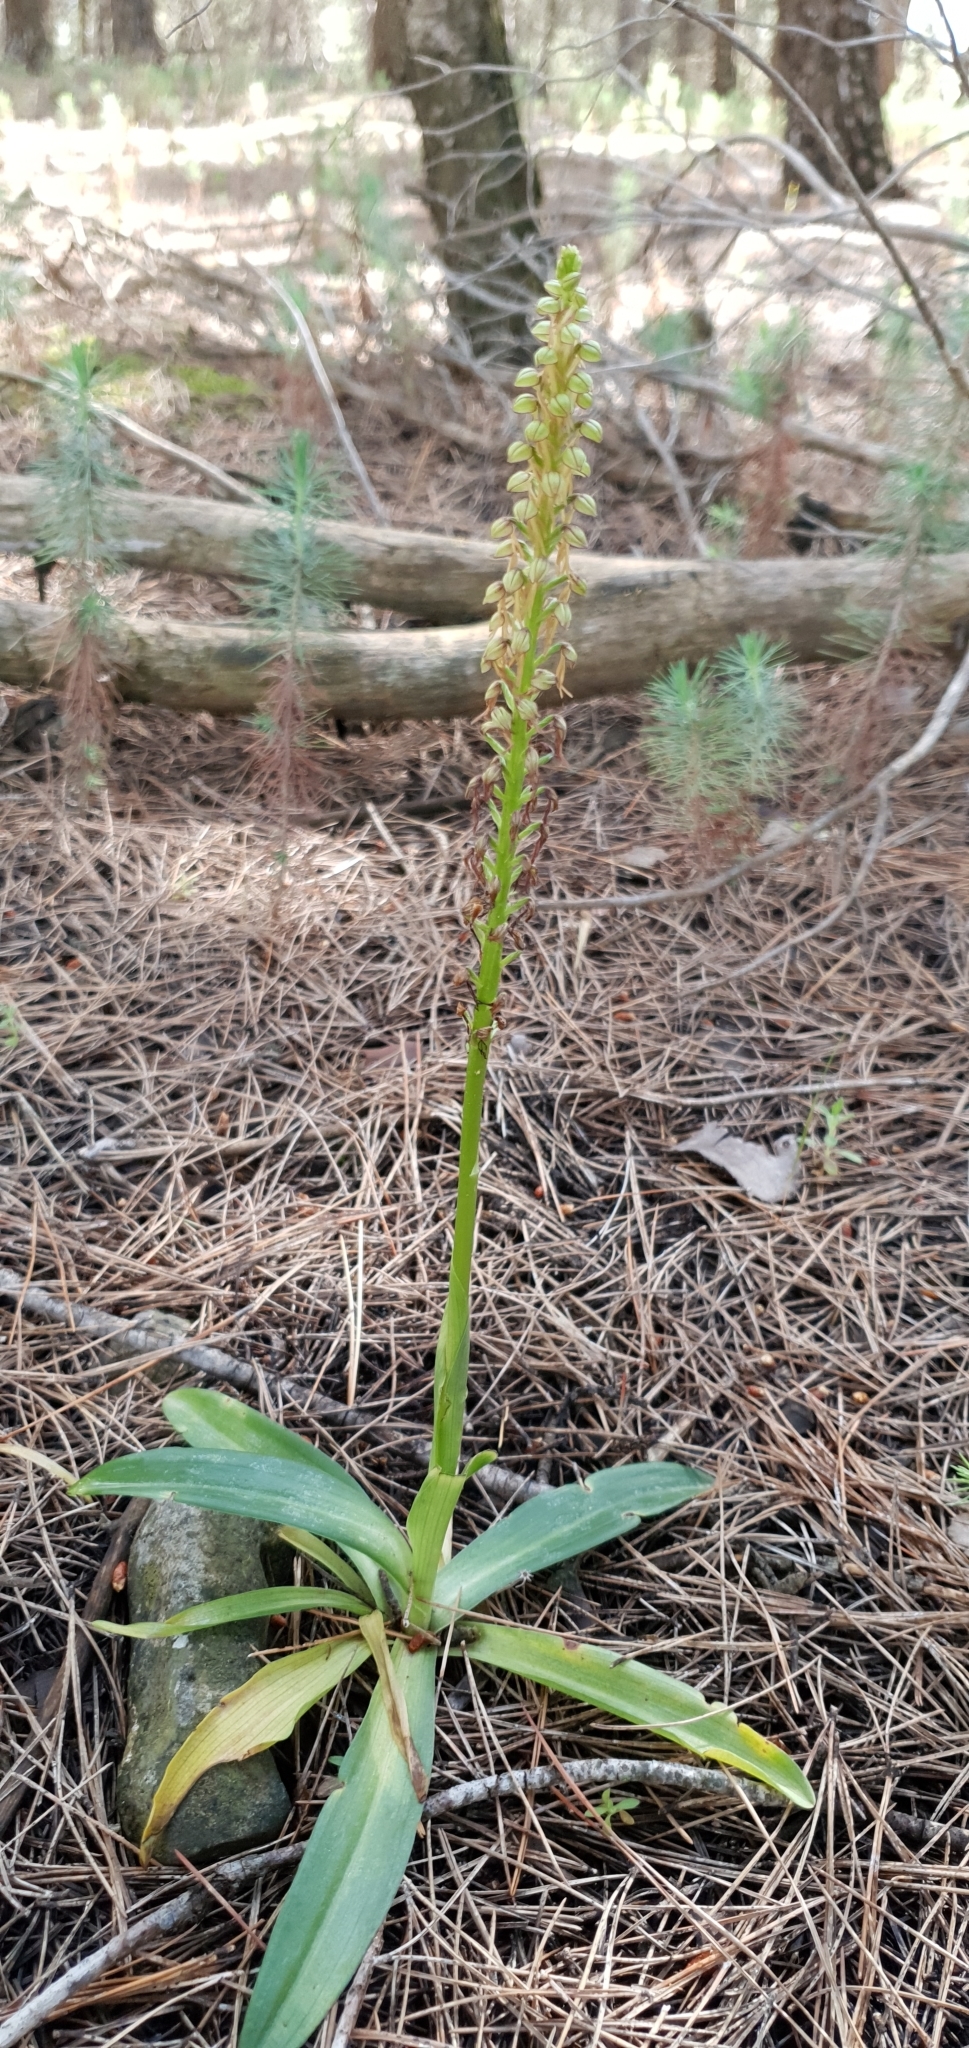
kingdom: Plantae
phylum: Tracheophyta
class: Liliopsida
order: Asparagales
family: Orchidaceae
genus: Orchis
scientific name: Orchis anthropophora
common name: Man orchid
